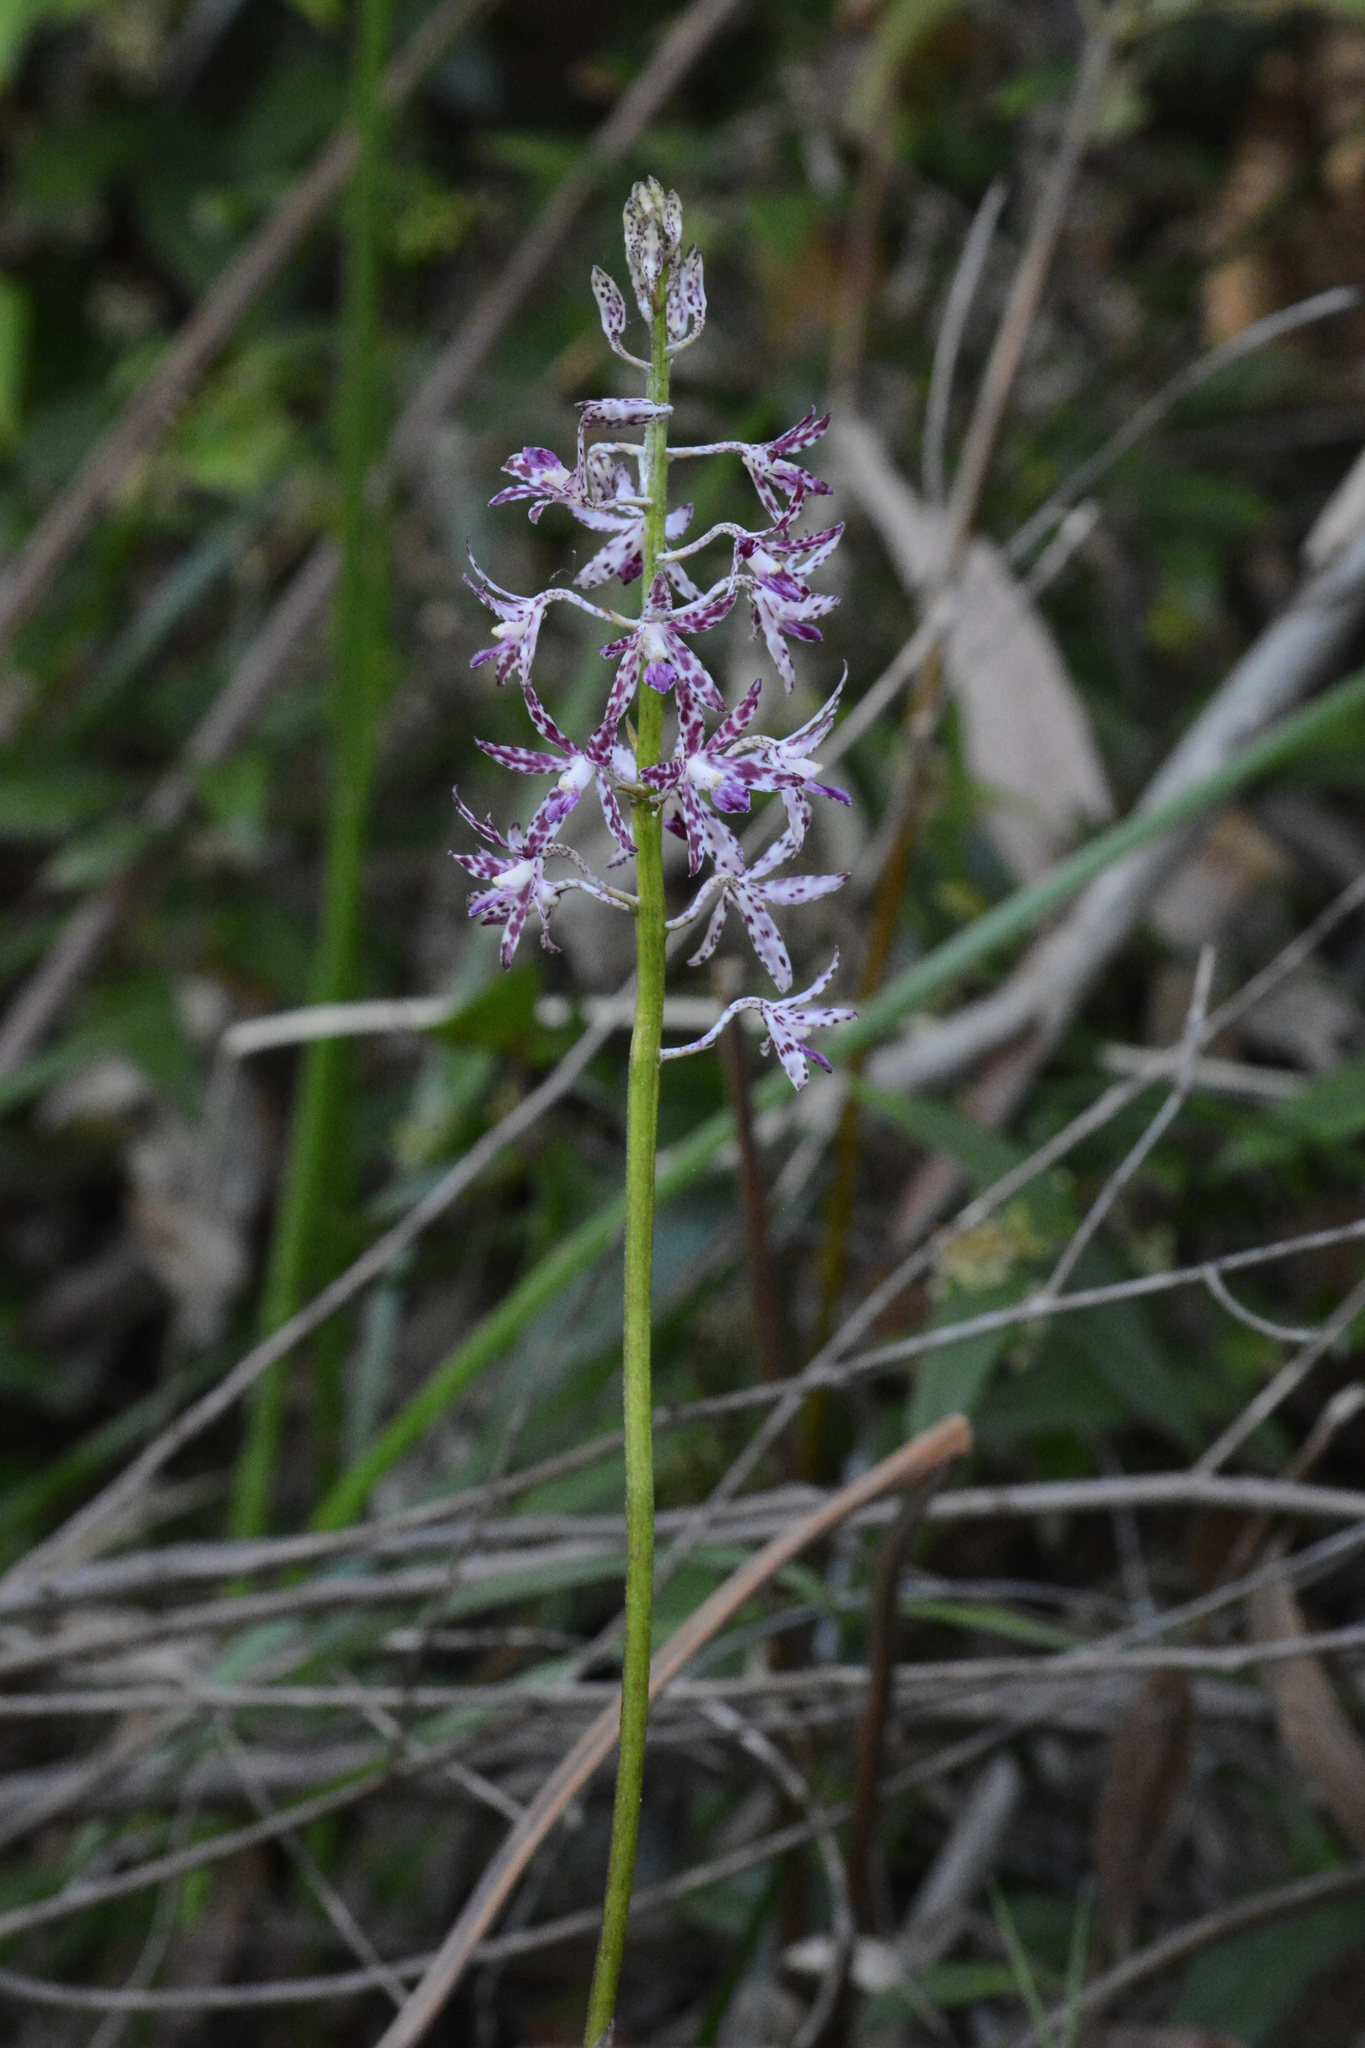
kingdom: Plantae
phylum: Tracheophyta
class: Liliopsida
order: Asparagales
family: Orchidaceae
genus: Dipodium
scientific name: Dipodium variegatum
